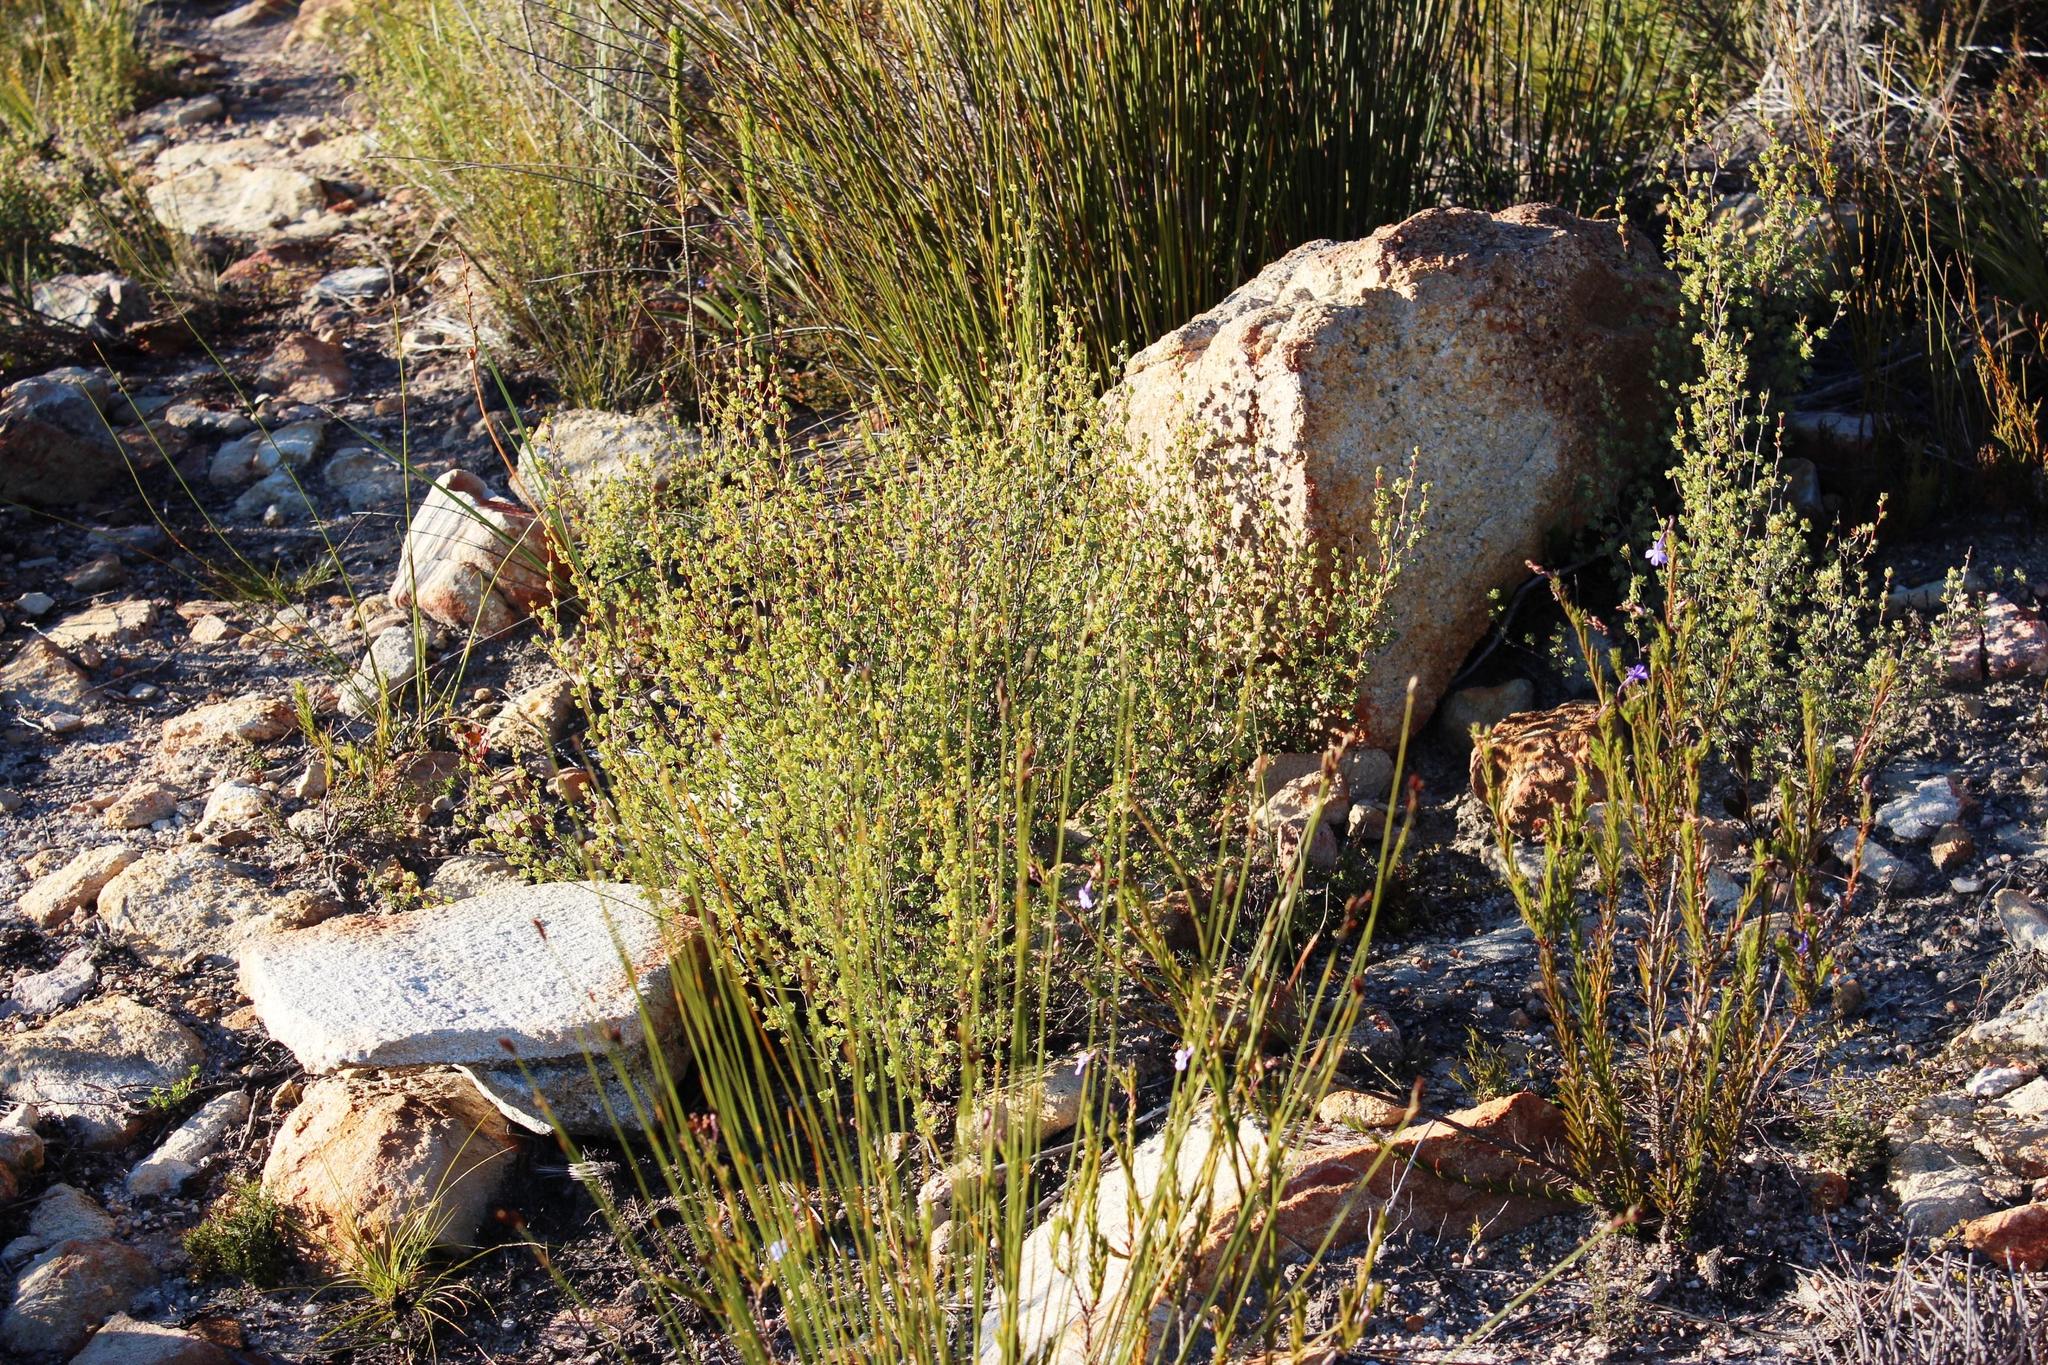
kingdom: Plantae
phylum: Tracheophyta
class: Magnoliopsida
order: Rosales
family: Rosaceae
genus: Cliffortia
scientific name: Cliffortia obovata
